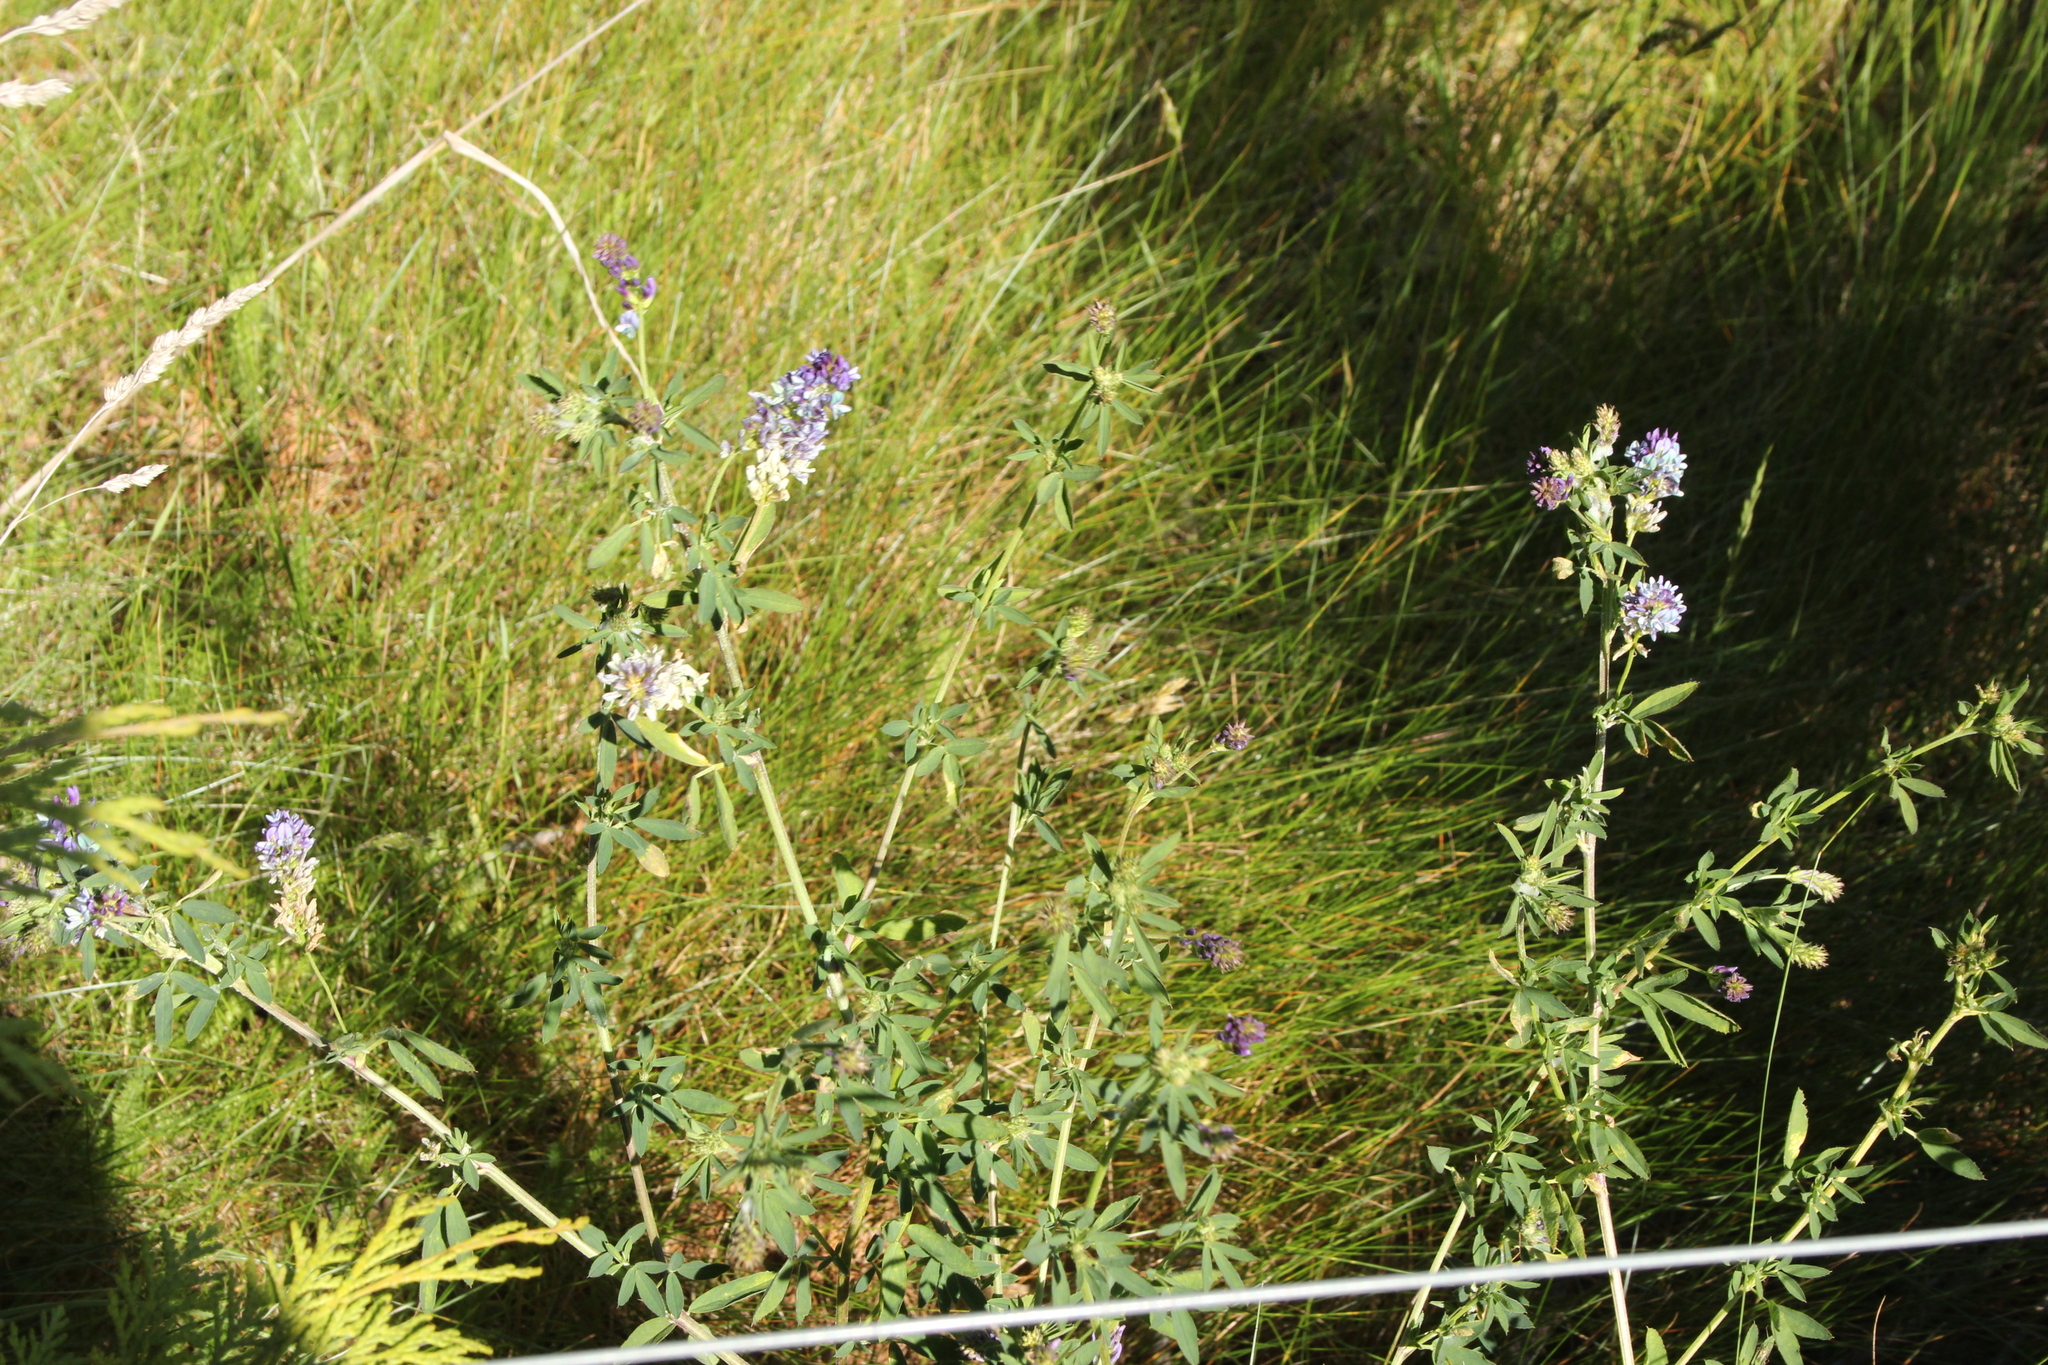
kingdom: Plantae
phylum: Tracheophyta
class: Magnoliopsida
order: Fabales
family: Fabaceae
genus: Medicago
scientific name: Medicago sativa
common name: Alfalfa
